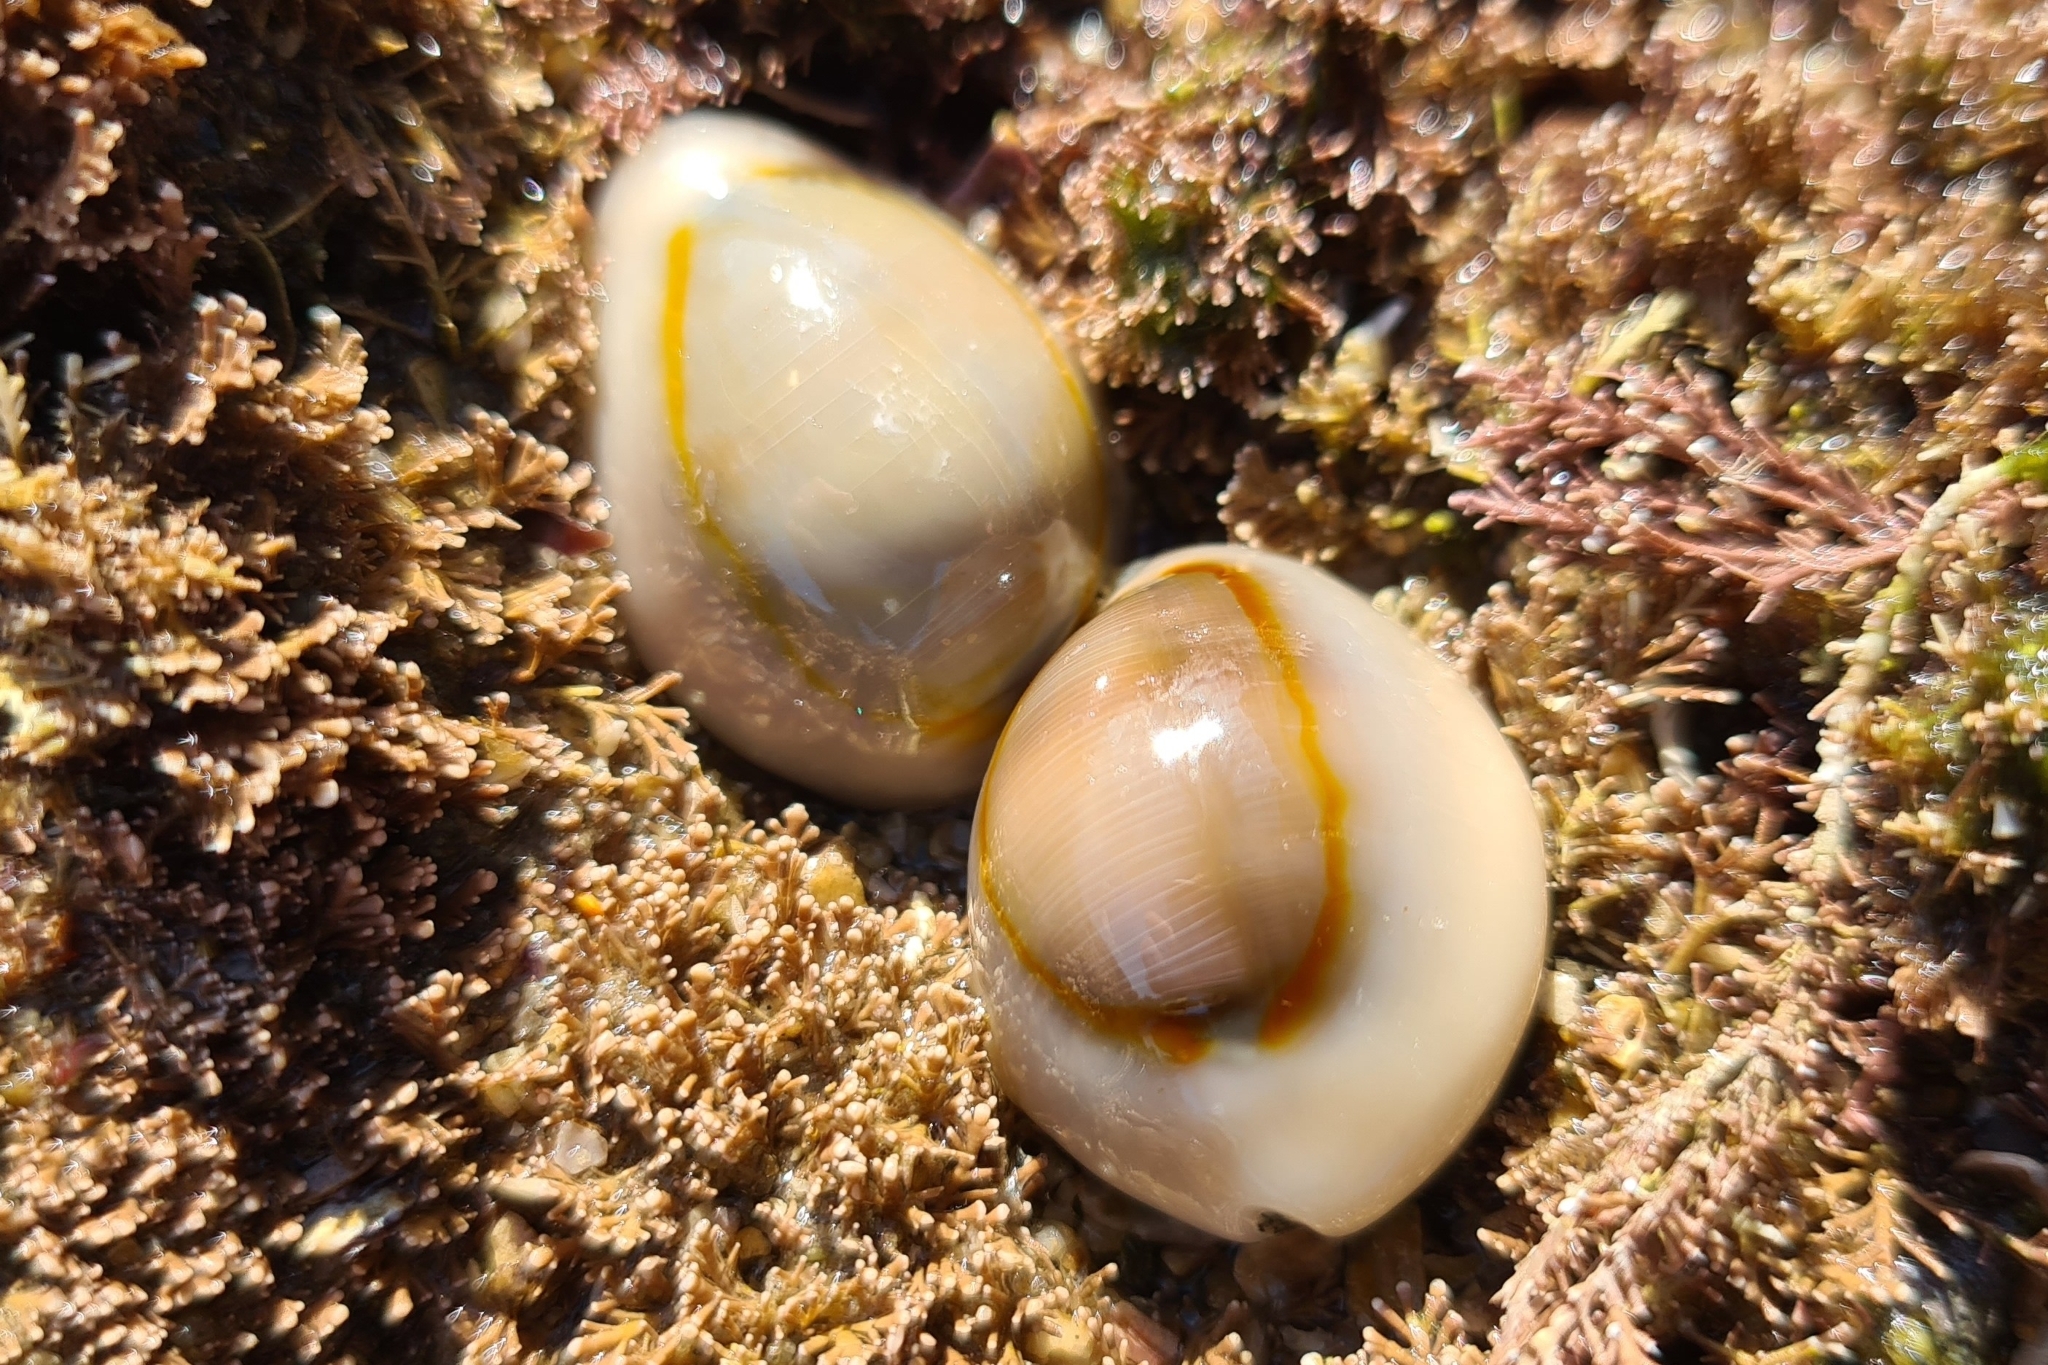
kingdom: Animalia
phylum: Mollusca
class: Gastropoda
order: Littorinimorpha
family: Cypraeidae
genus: Monetaria
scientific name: Monetaria annulus
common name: Ring cowrie
